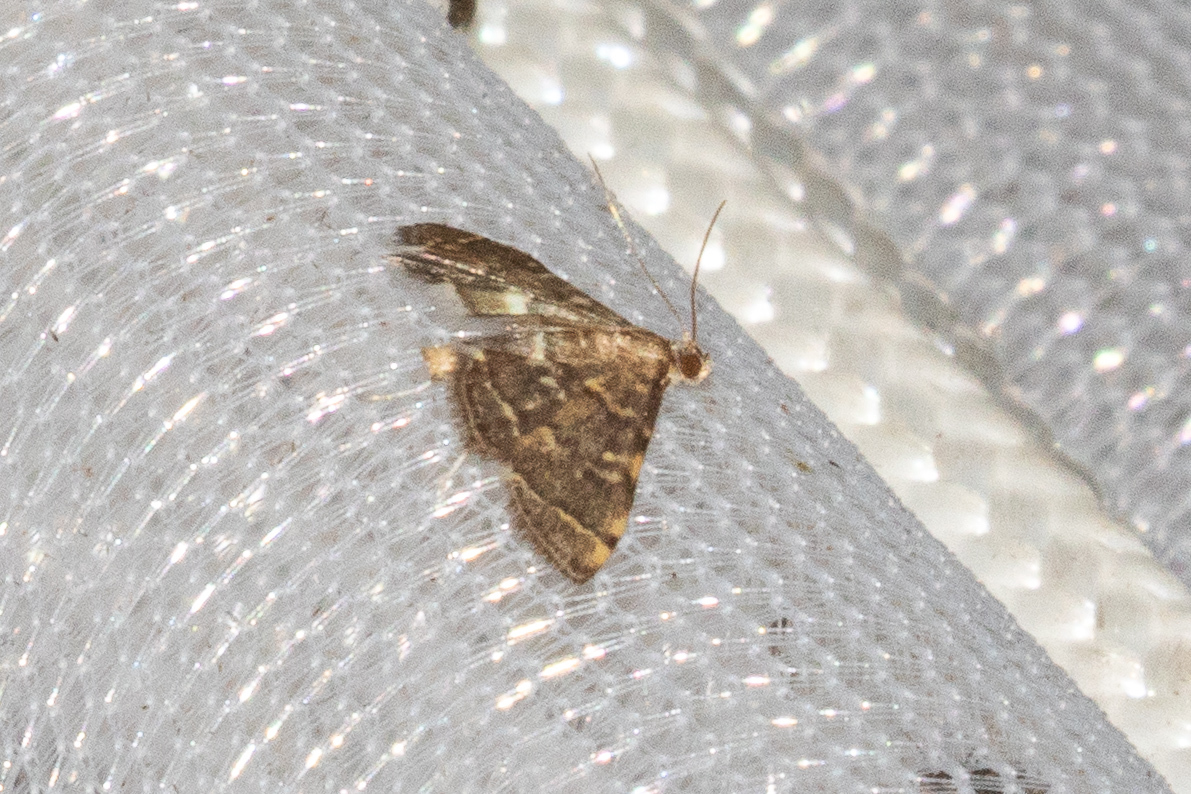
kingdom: Animalia
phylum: Arthropoda
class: Insecta
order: Lepidoptera
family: Crambidae
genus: Anageshna
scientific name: Anageshna primordialis
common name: Yellow-spotted webworm moth
